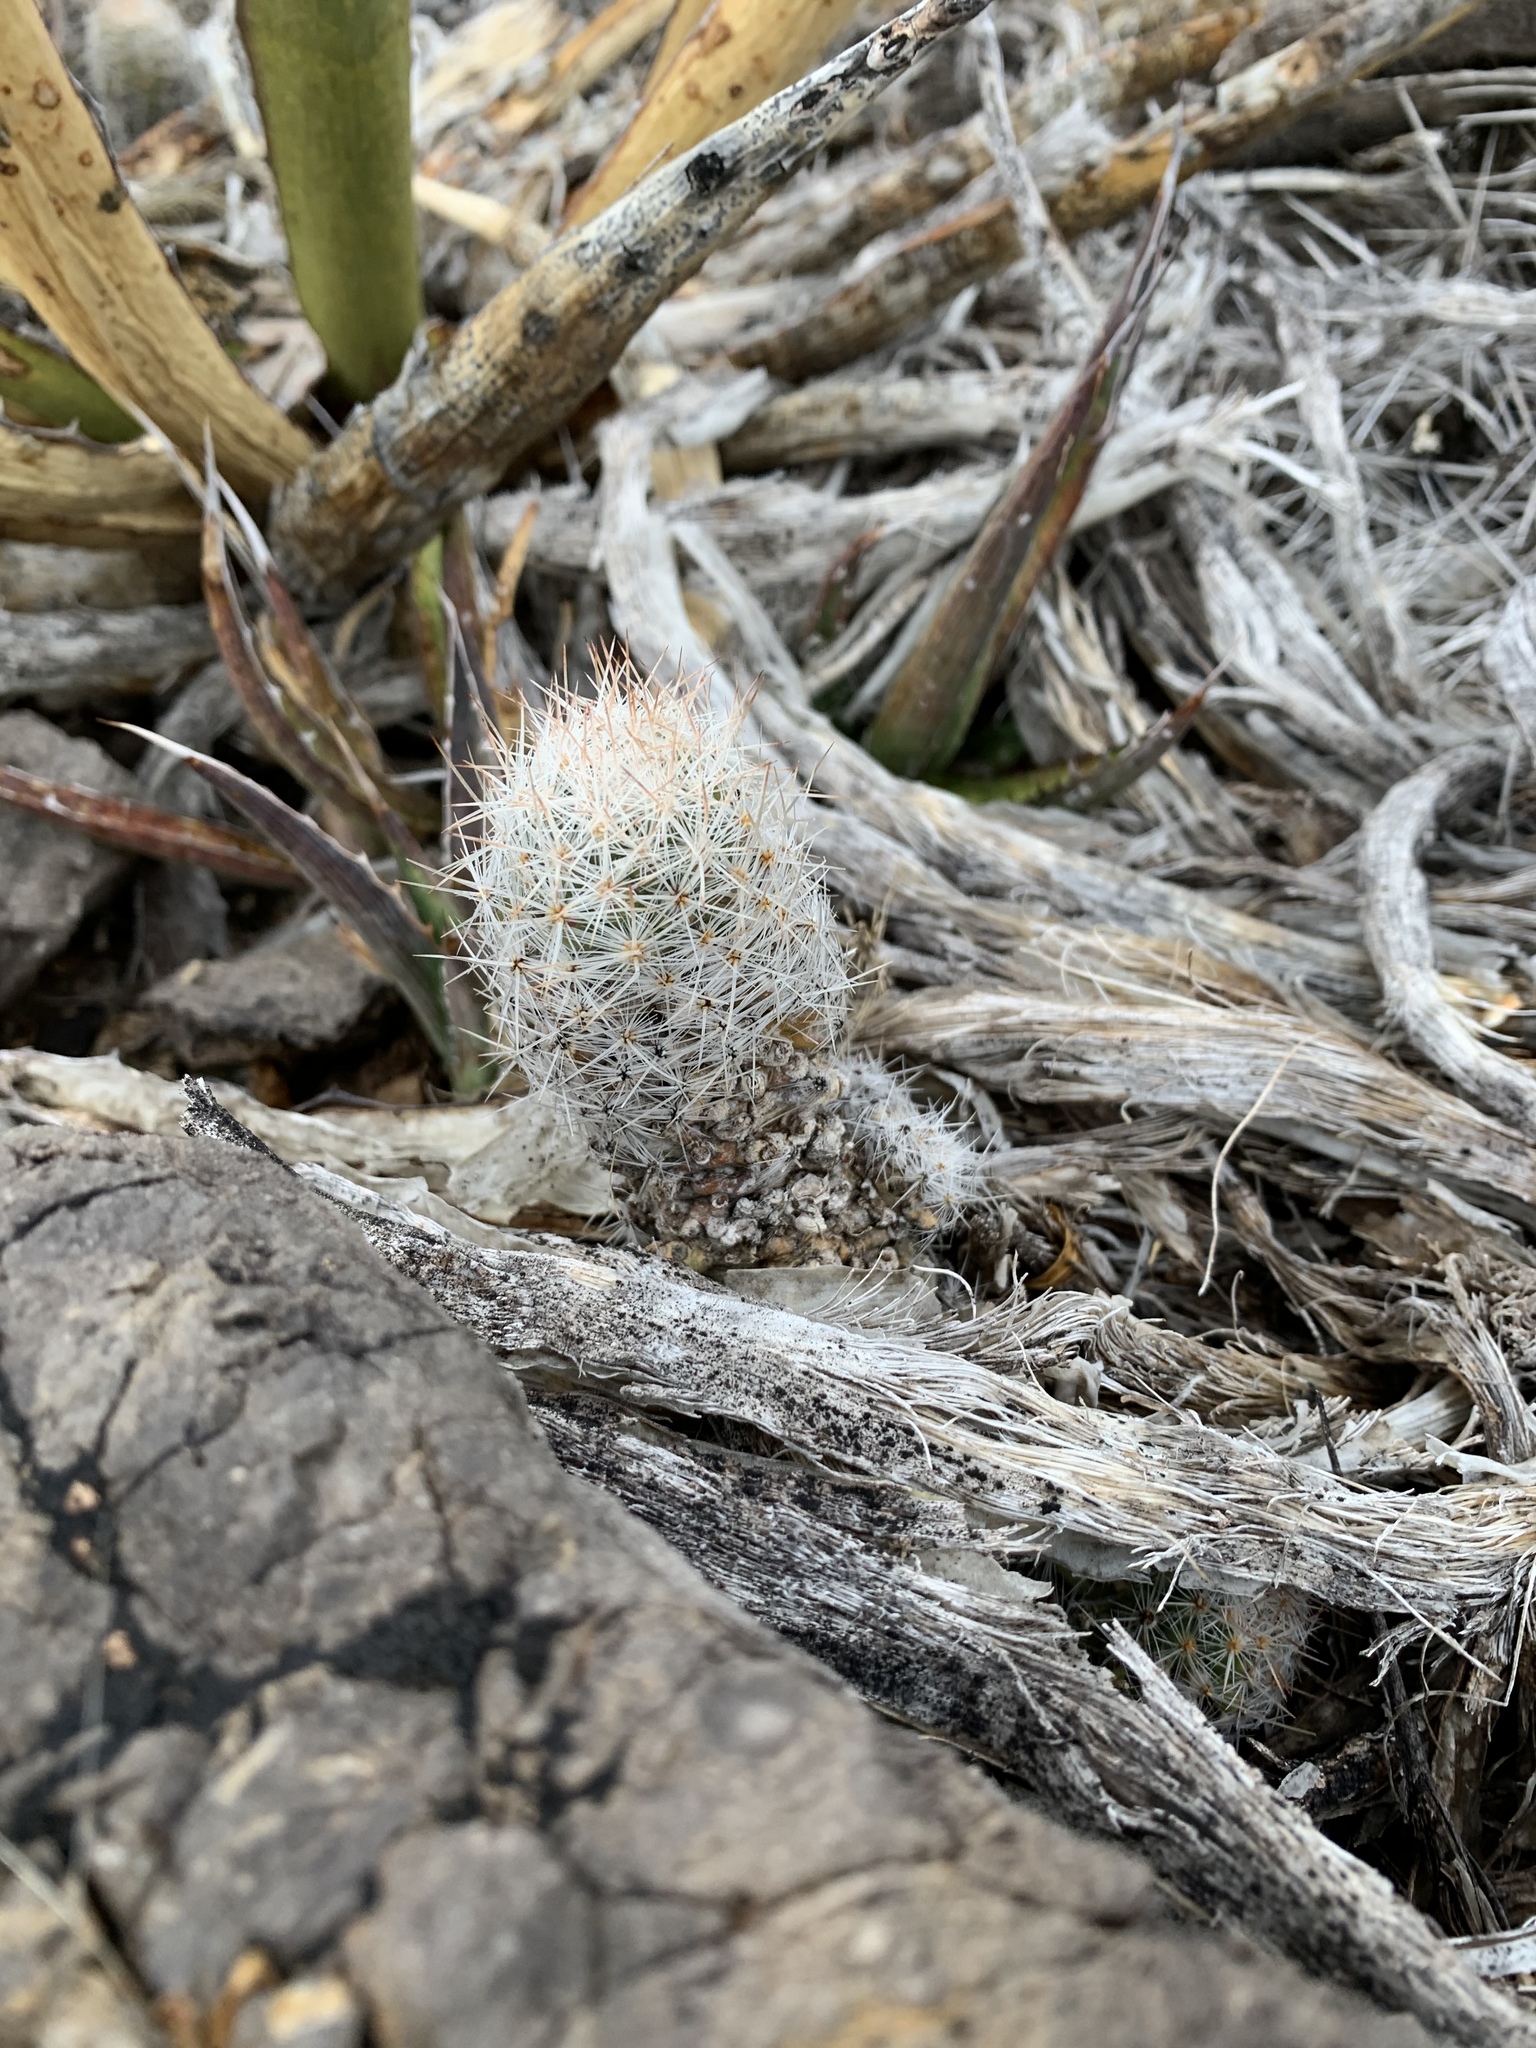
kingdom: Plantae
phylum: Tracheophyta
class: Magnoliopsida
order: Caryophyllales
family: Cactaceae
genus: Pelecyphora
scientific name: Pelecyphora tuberculosa
